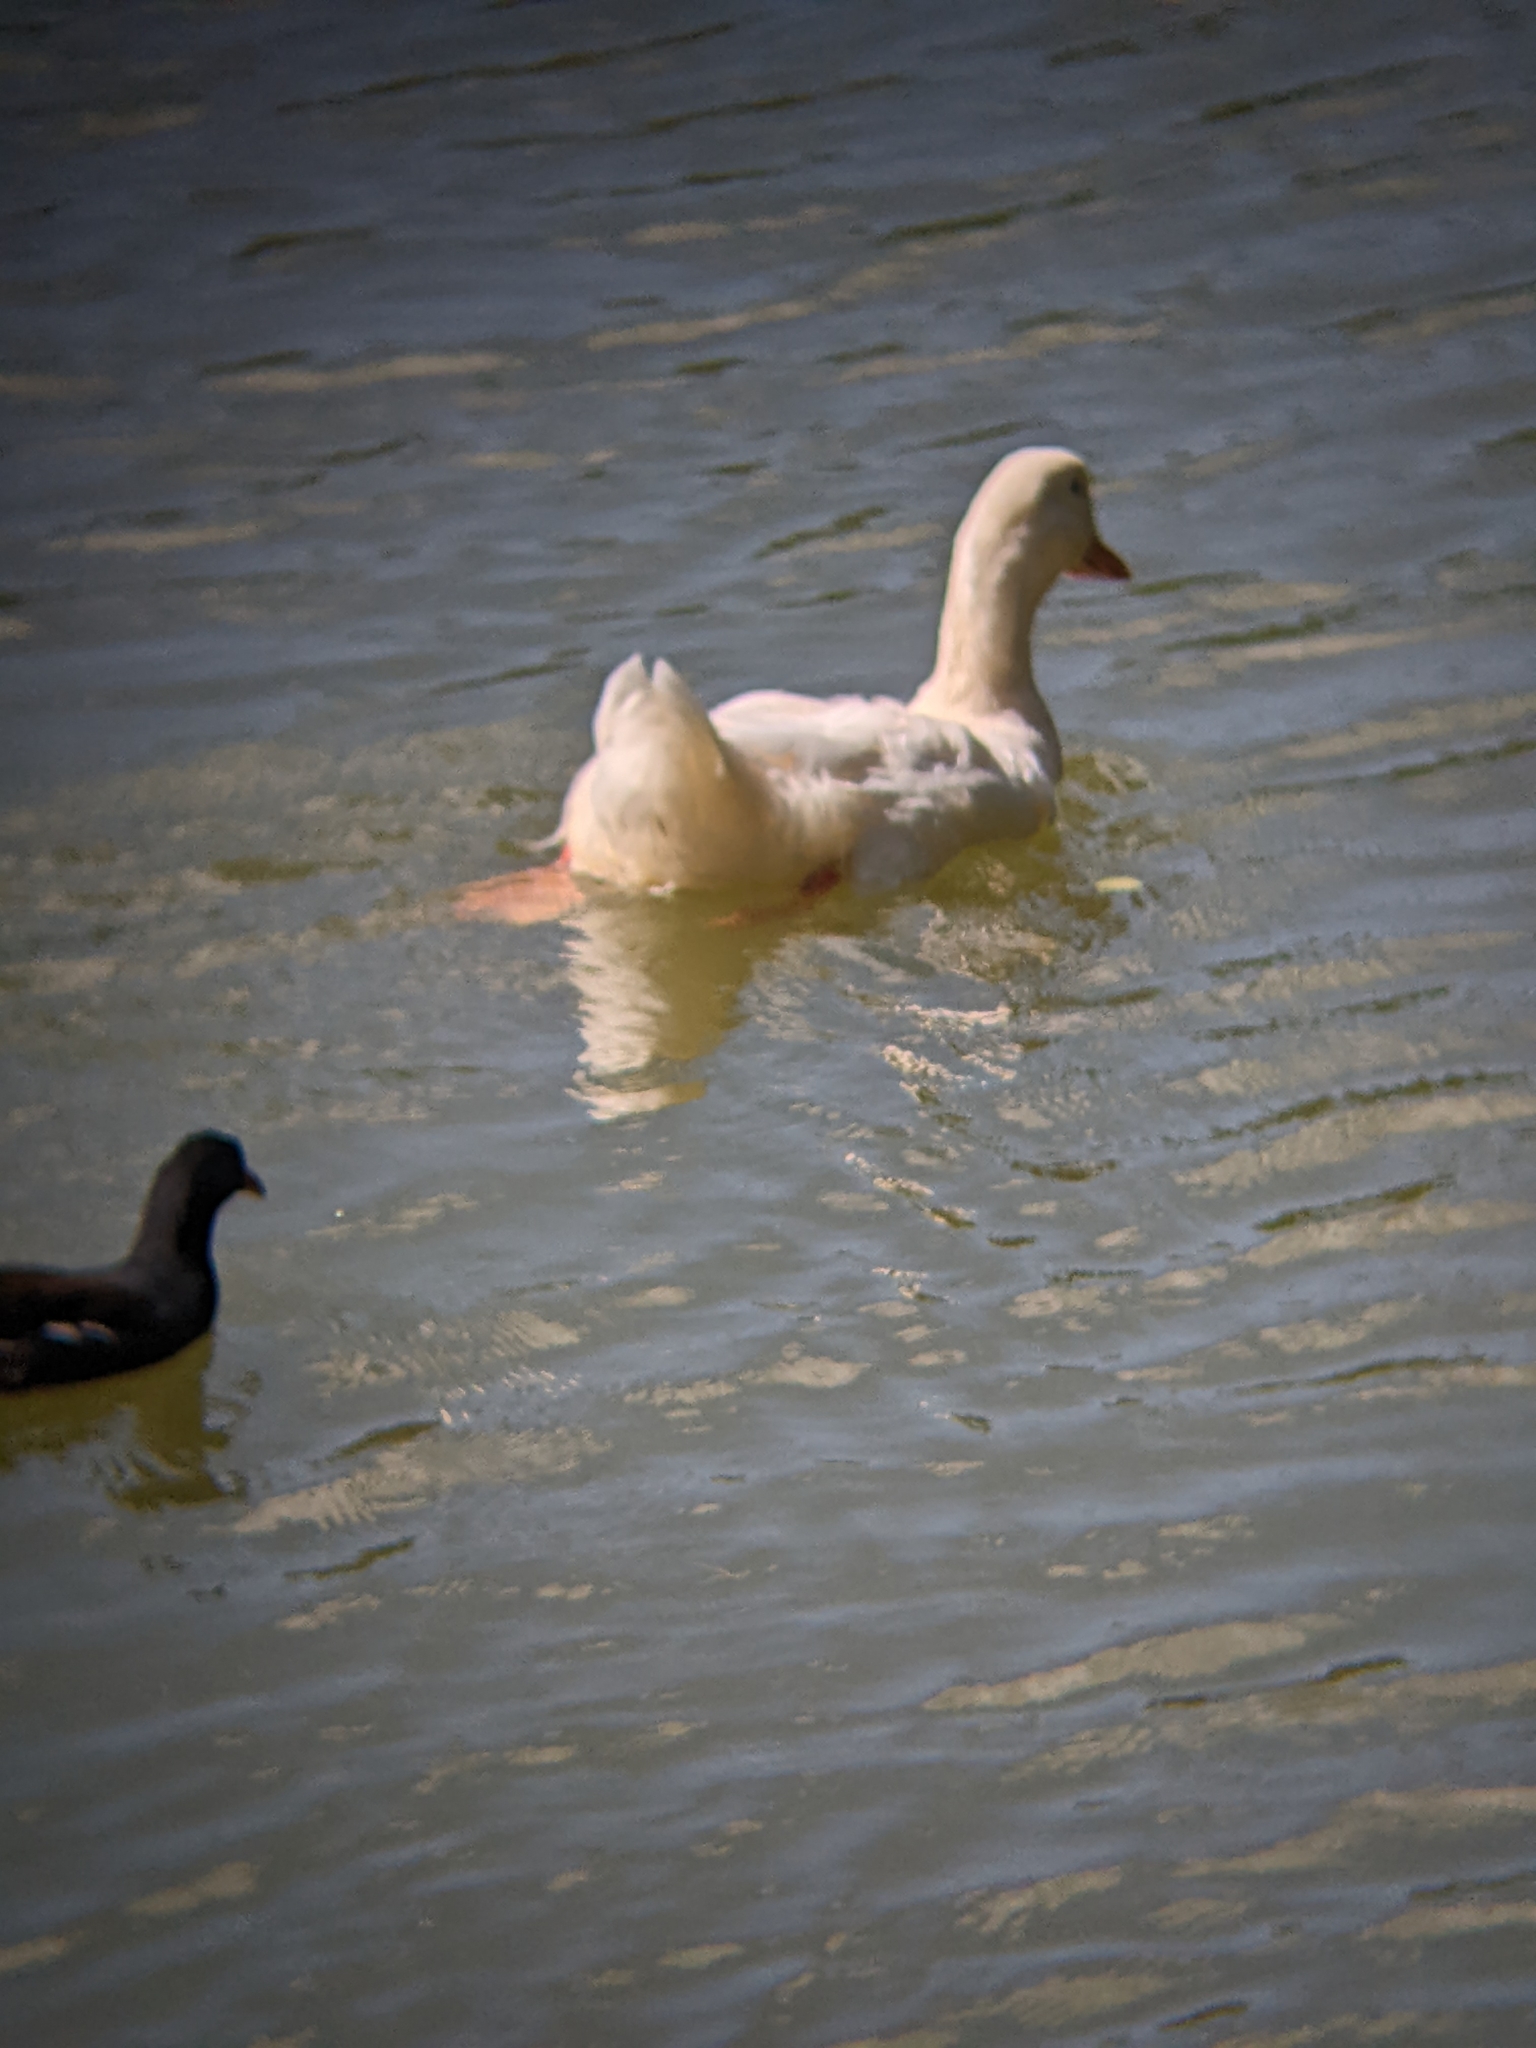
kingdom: Animalia
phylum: Chordata
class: Aves
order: Anseriformes
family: Anatidae
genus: Anas
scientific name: Anas platyrhynchos
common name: Mallard
